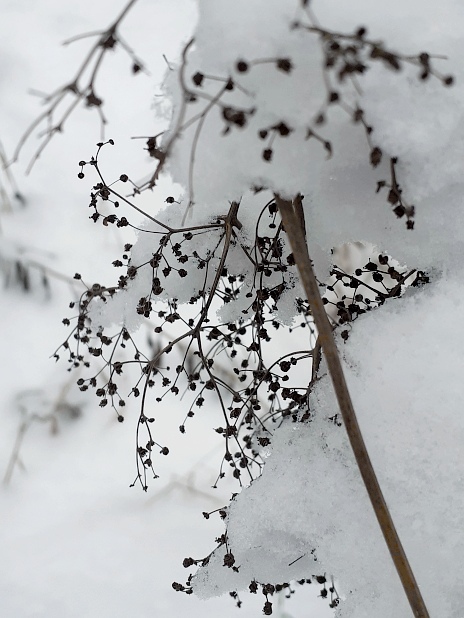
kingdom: Plantae
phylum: Tracheophyta
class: Magnoliopsida
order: Rosales
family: Rosaceae
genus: Filipendula
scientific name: Filipendula ulmaria
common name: Meadowsweet
